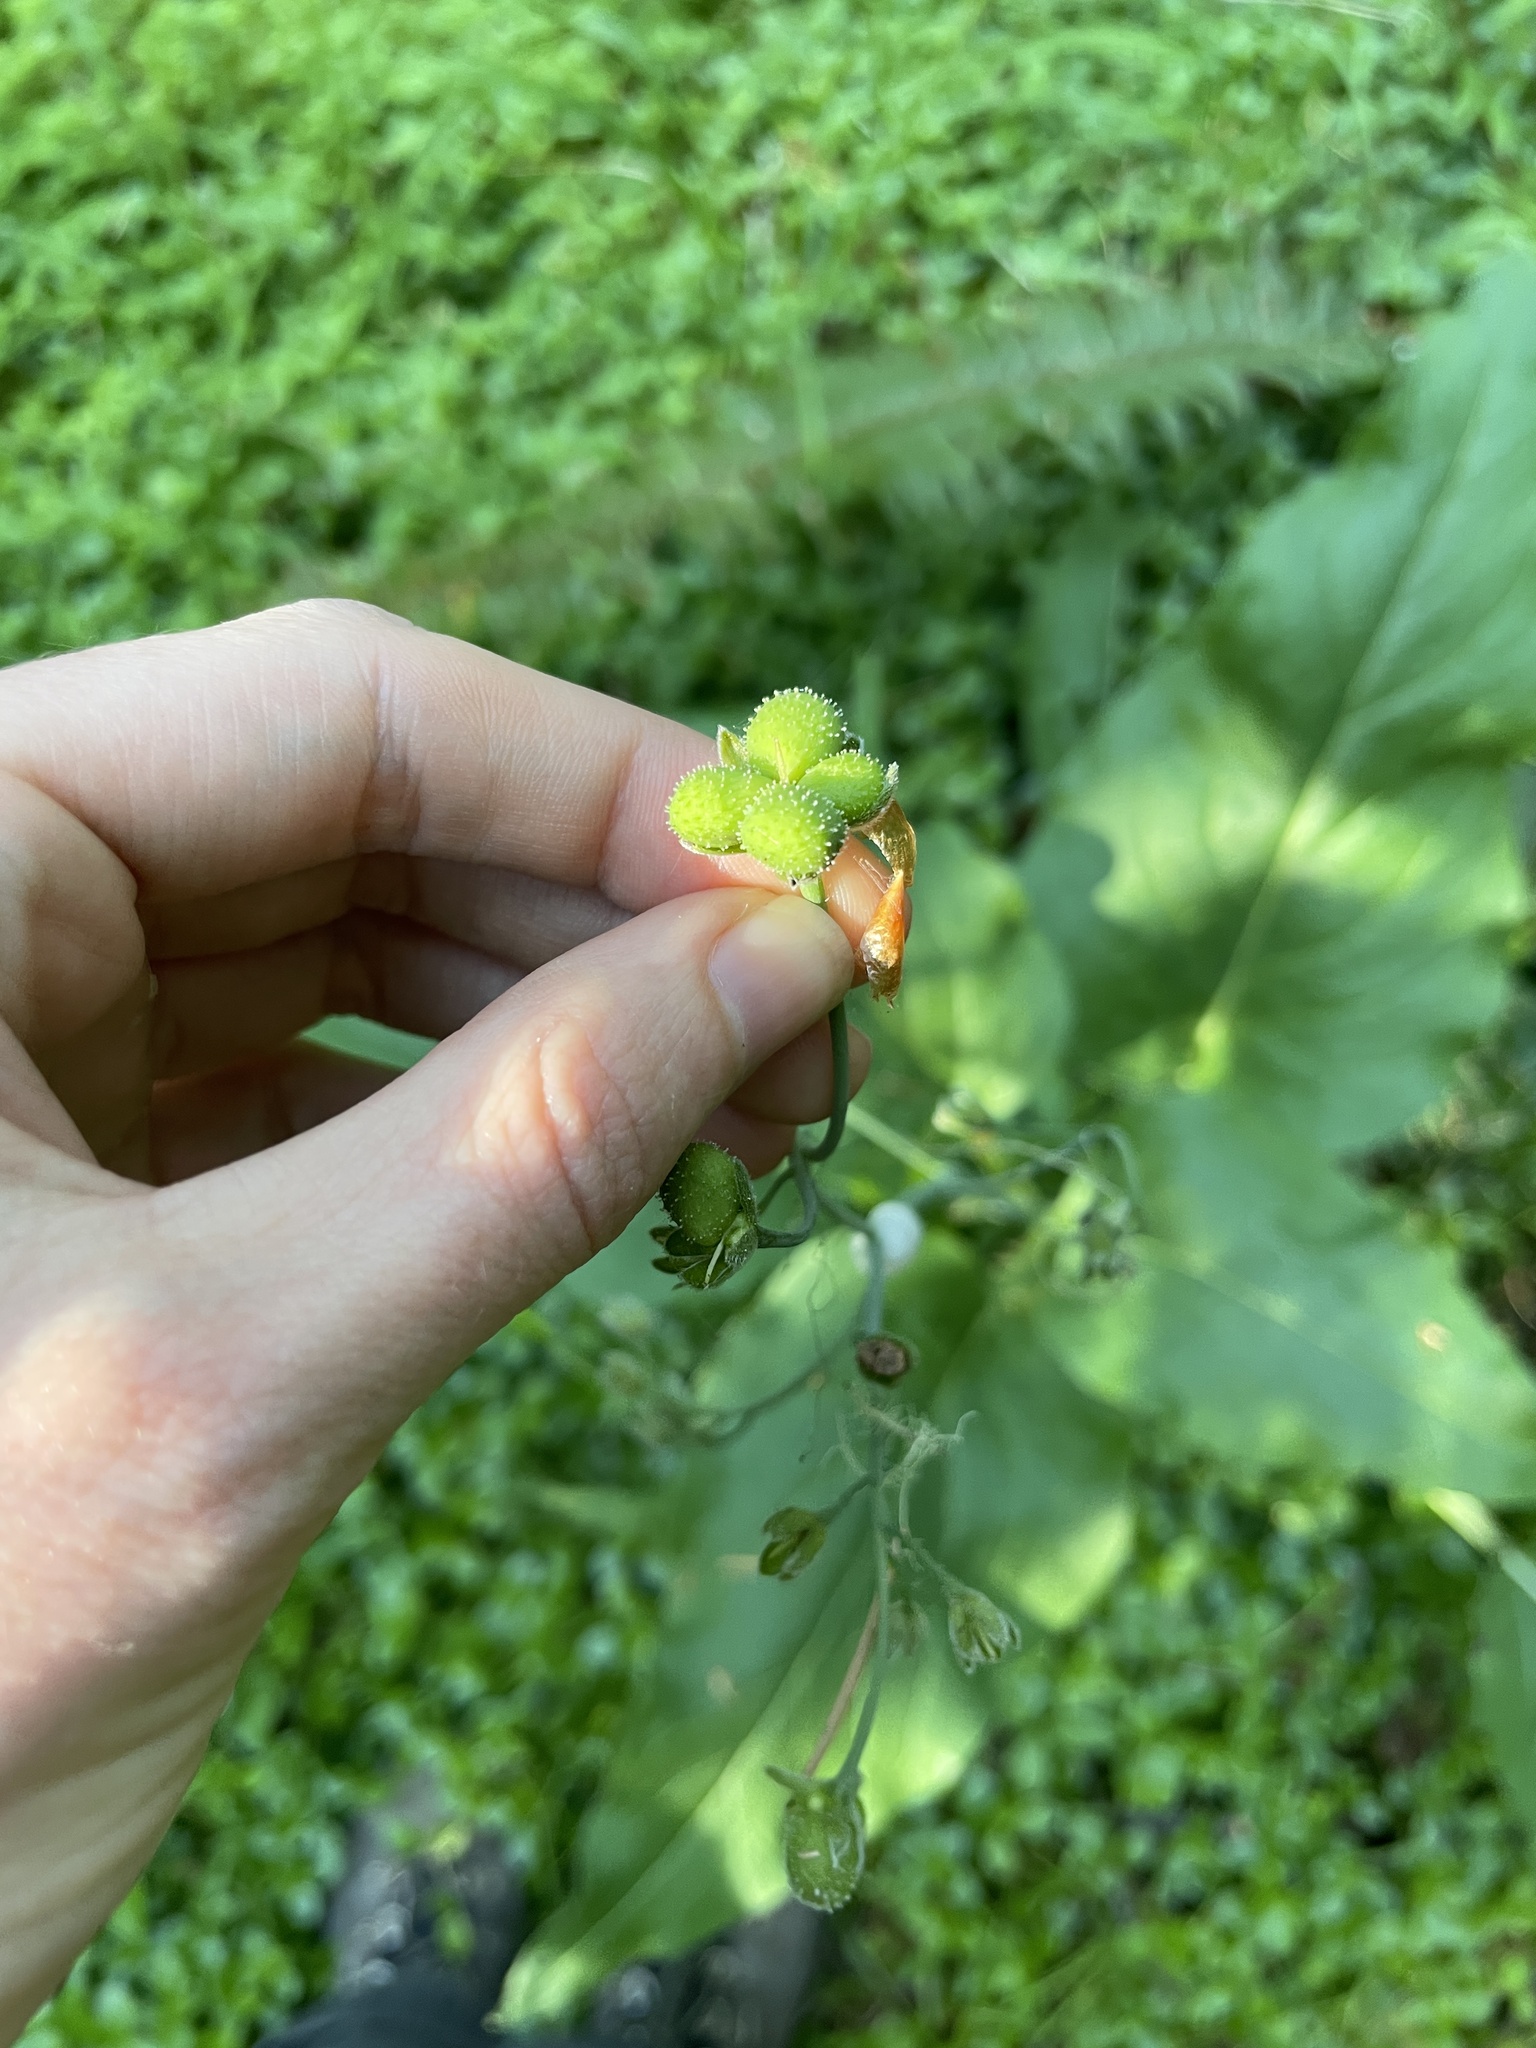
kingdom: Plantae
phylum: Tracheophyta
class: Magnoliopsida
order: Boraginales
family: Boraginaceae
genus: Adelinia
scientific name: Adelinia grande
